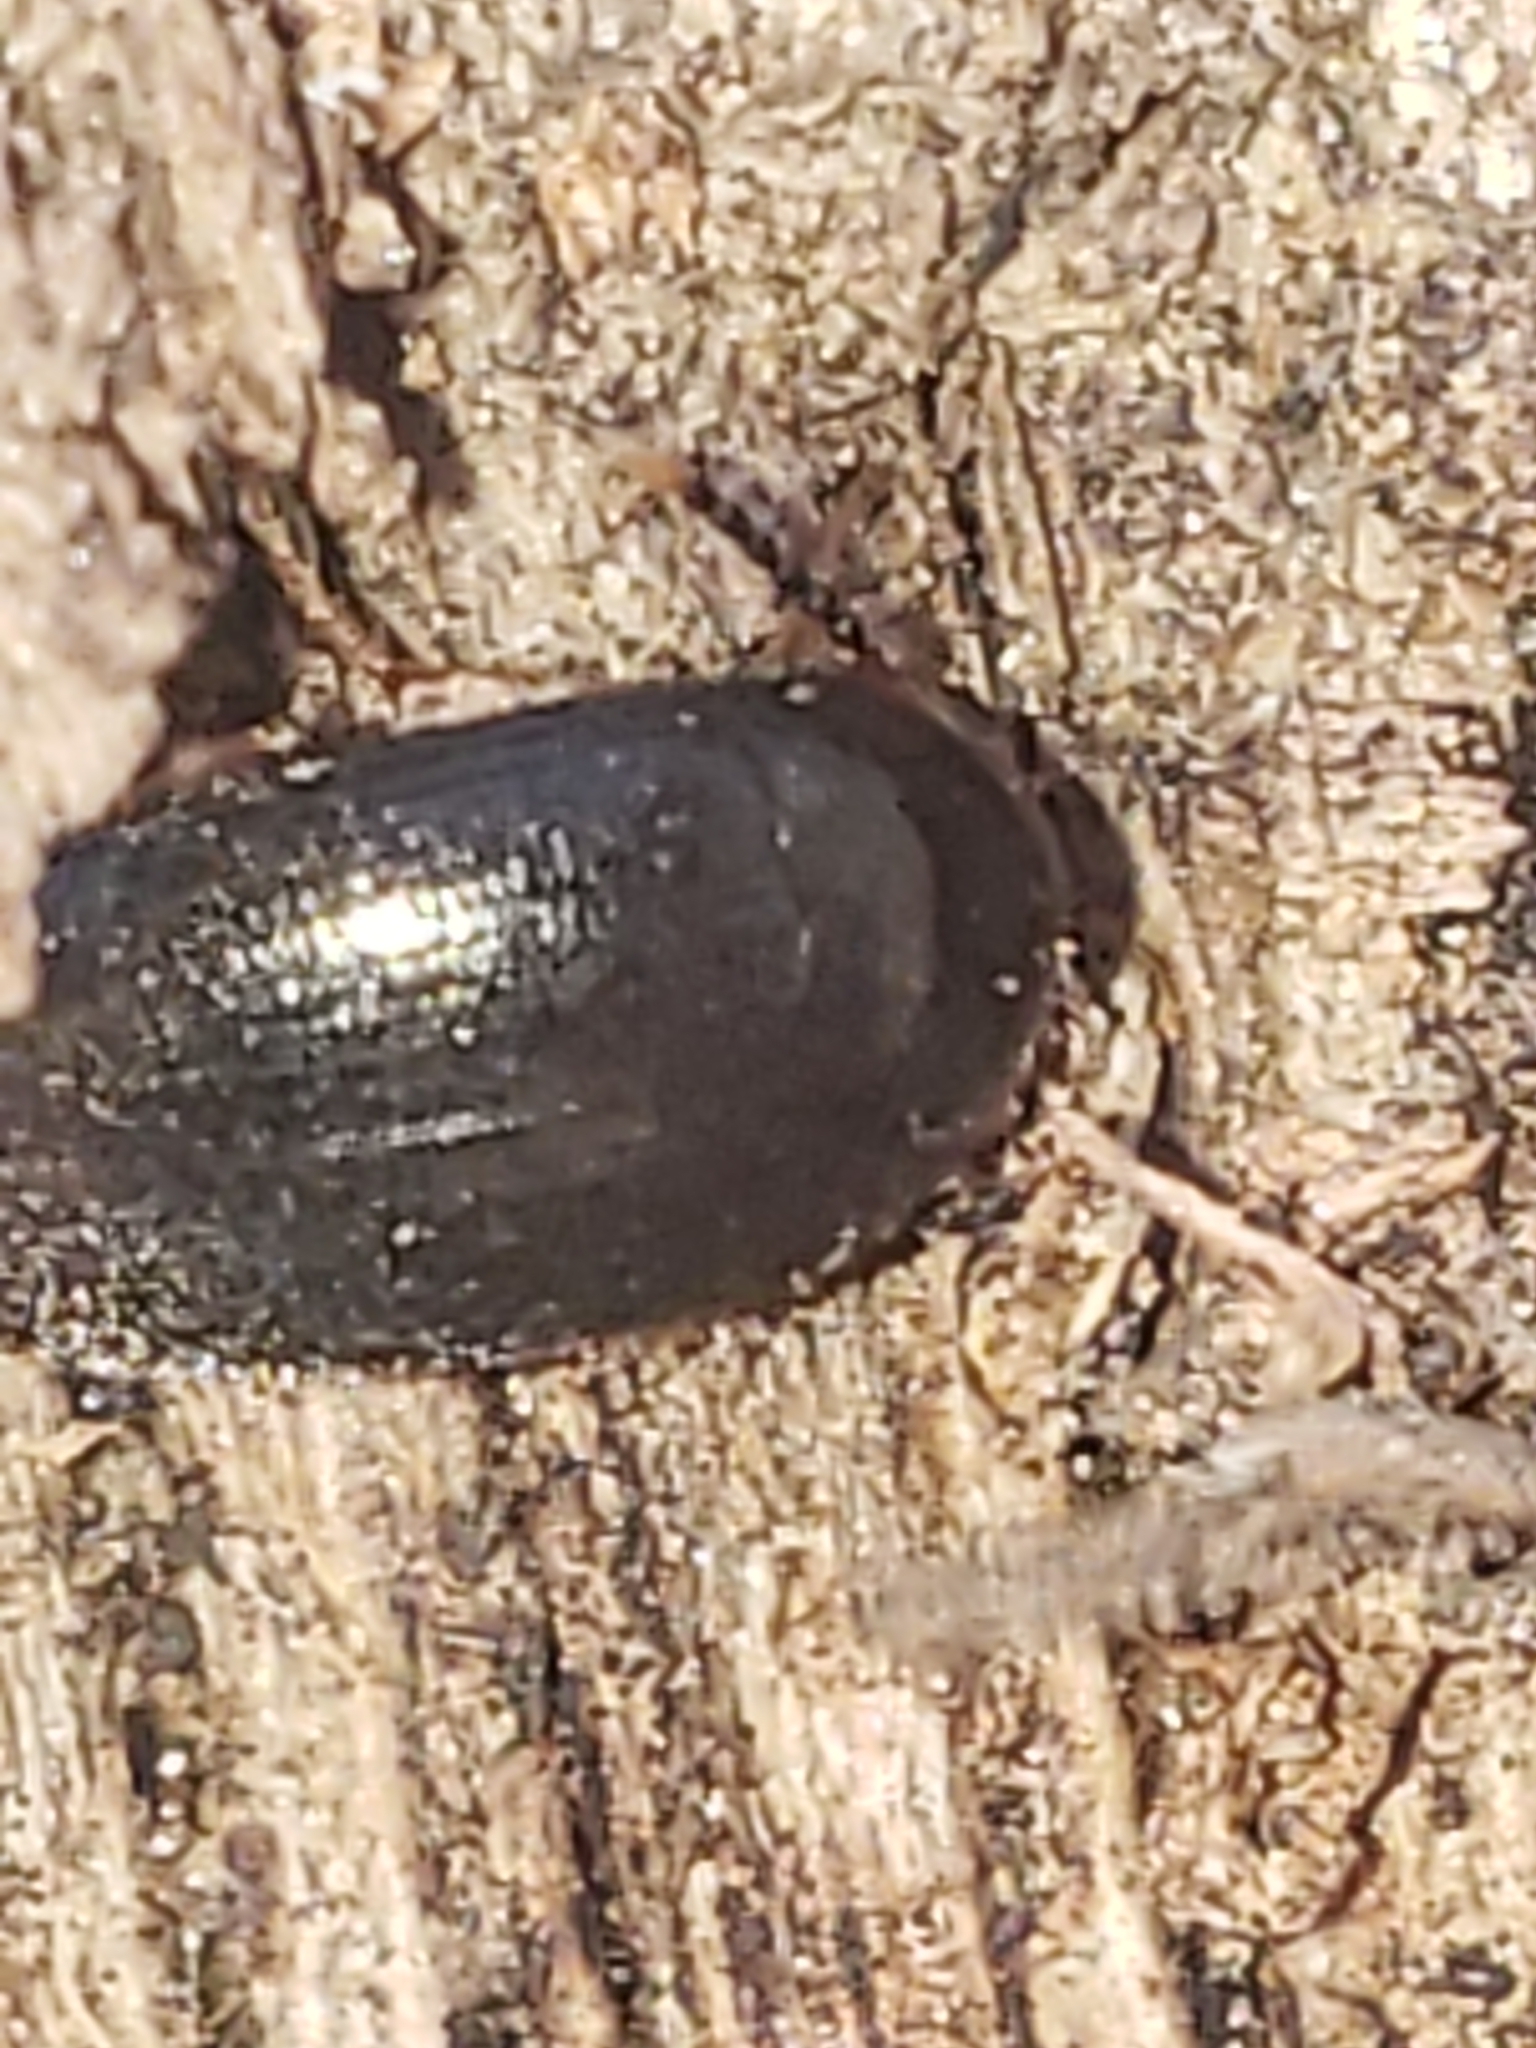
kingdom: Animalia
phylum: Arthropoda
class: Insecta
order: Coleoptera
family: Tetratomidae
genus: Eustrophopsis
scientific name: Eustrophopsis bicolor
